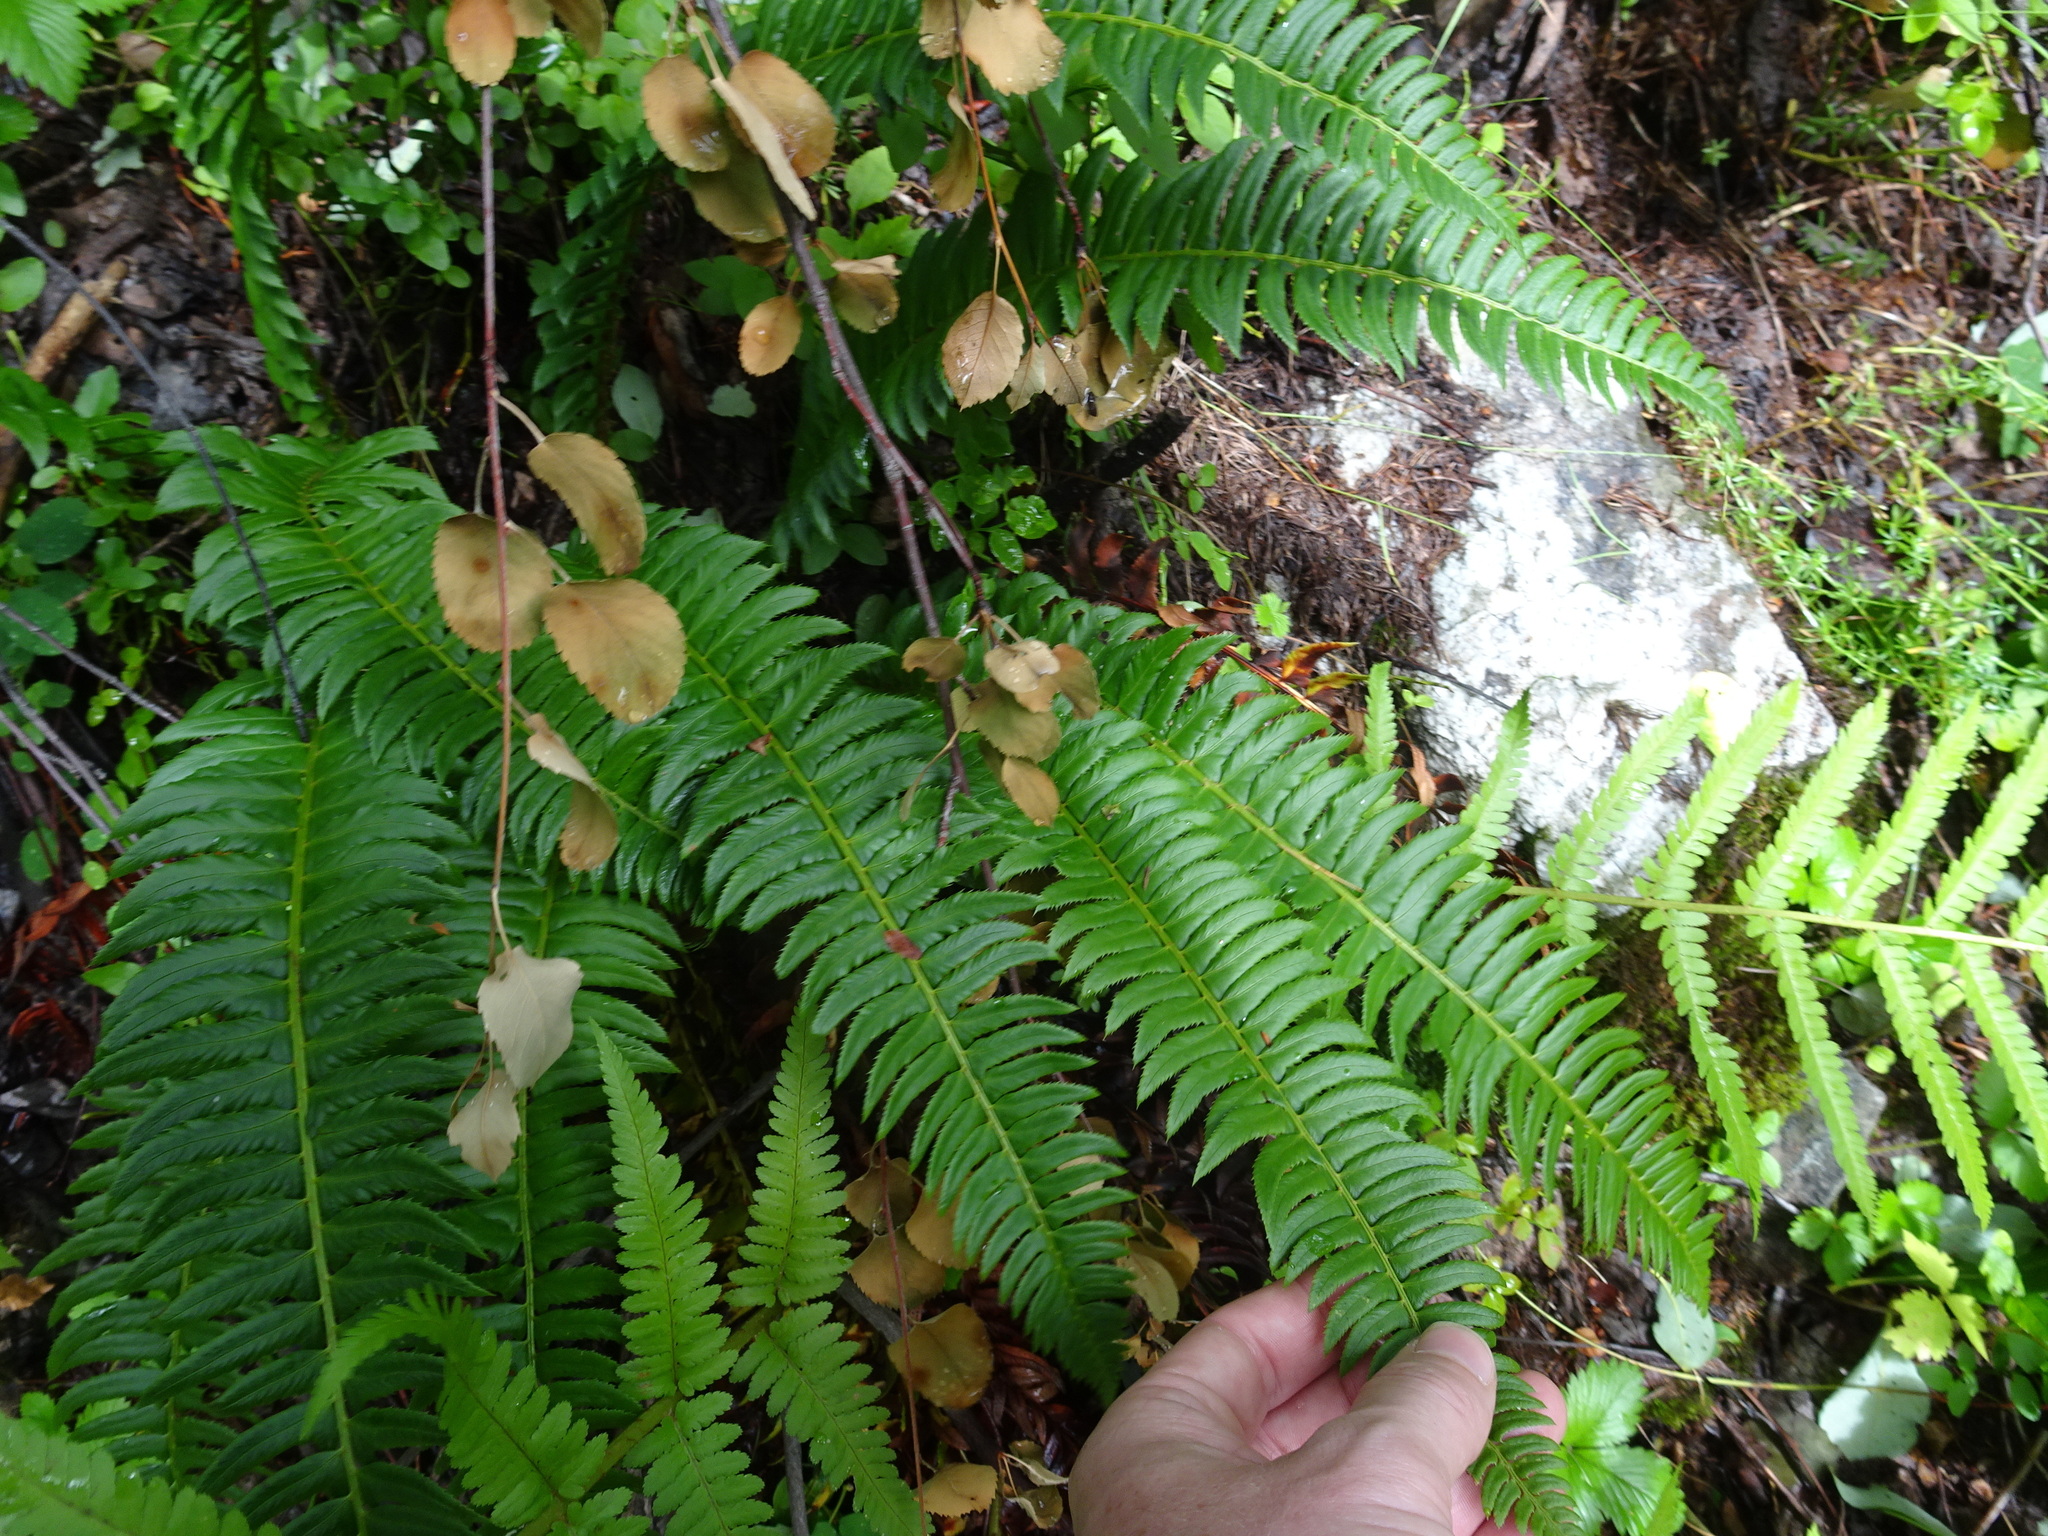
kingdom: Plantae
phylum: Tracheophyta
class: Polypodiopsida
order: Polypodiales
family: Dryopteridaceae
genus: Polystichum
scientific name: Polystichum lonchitis
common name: Holly fern
